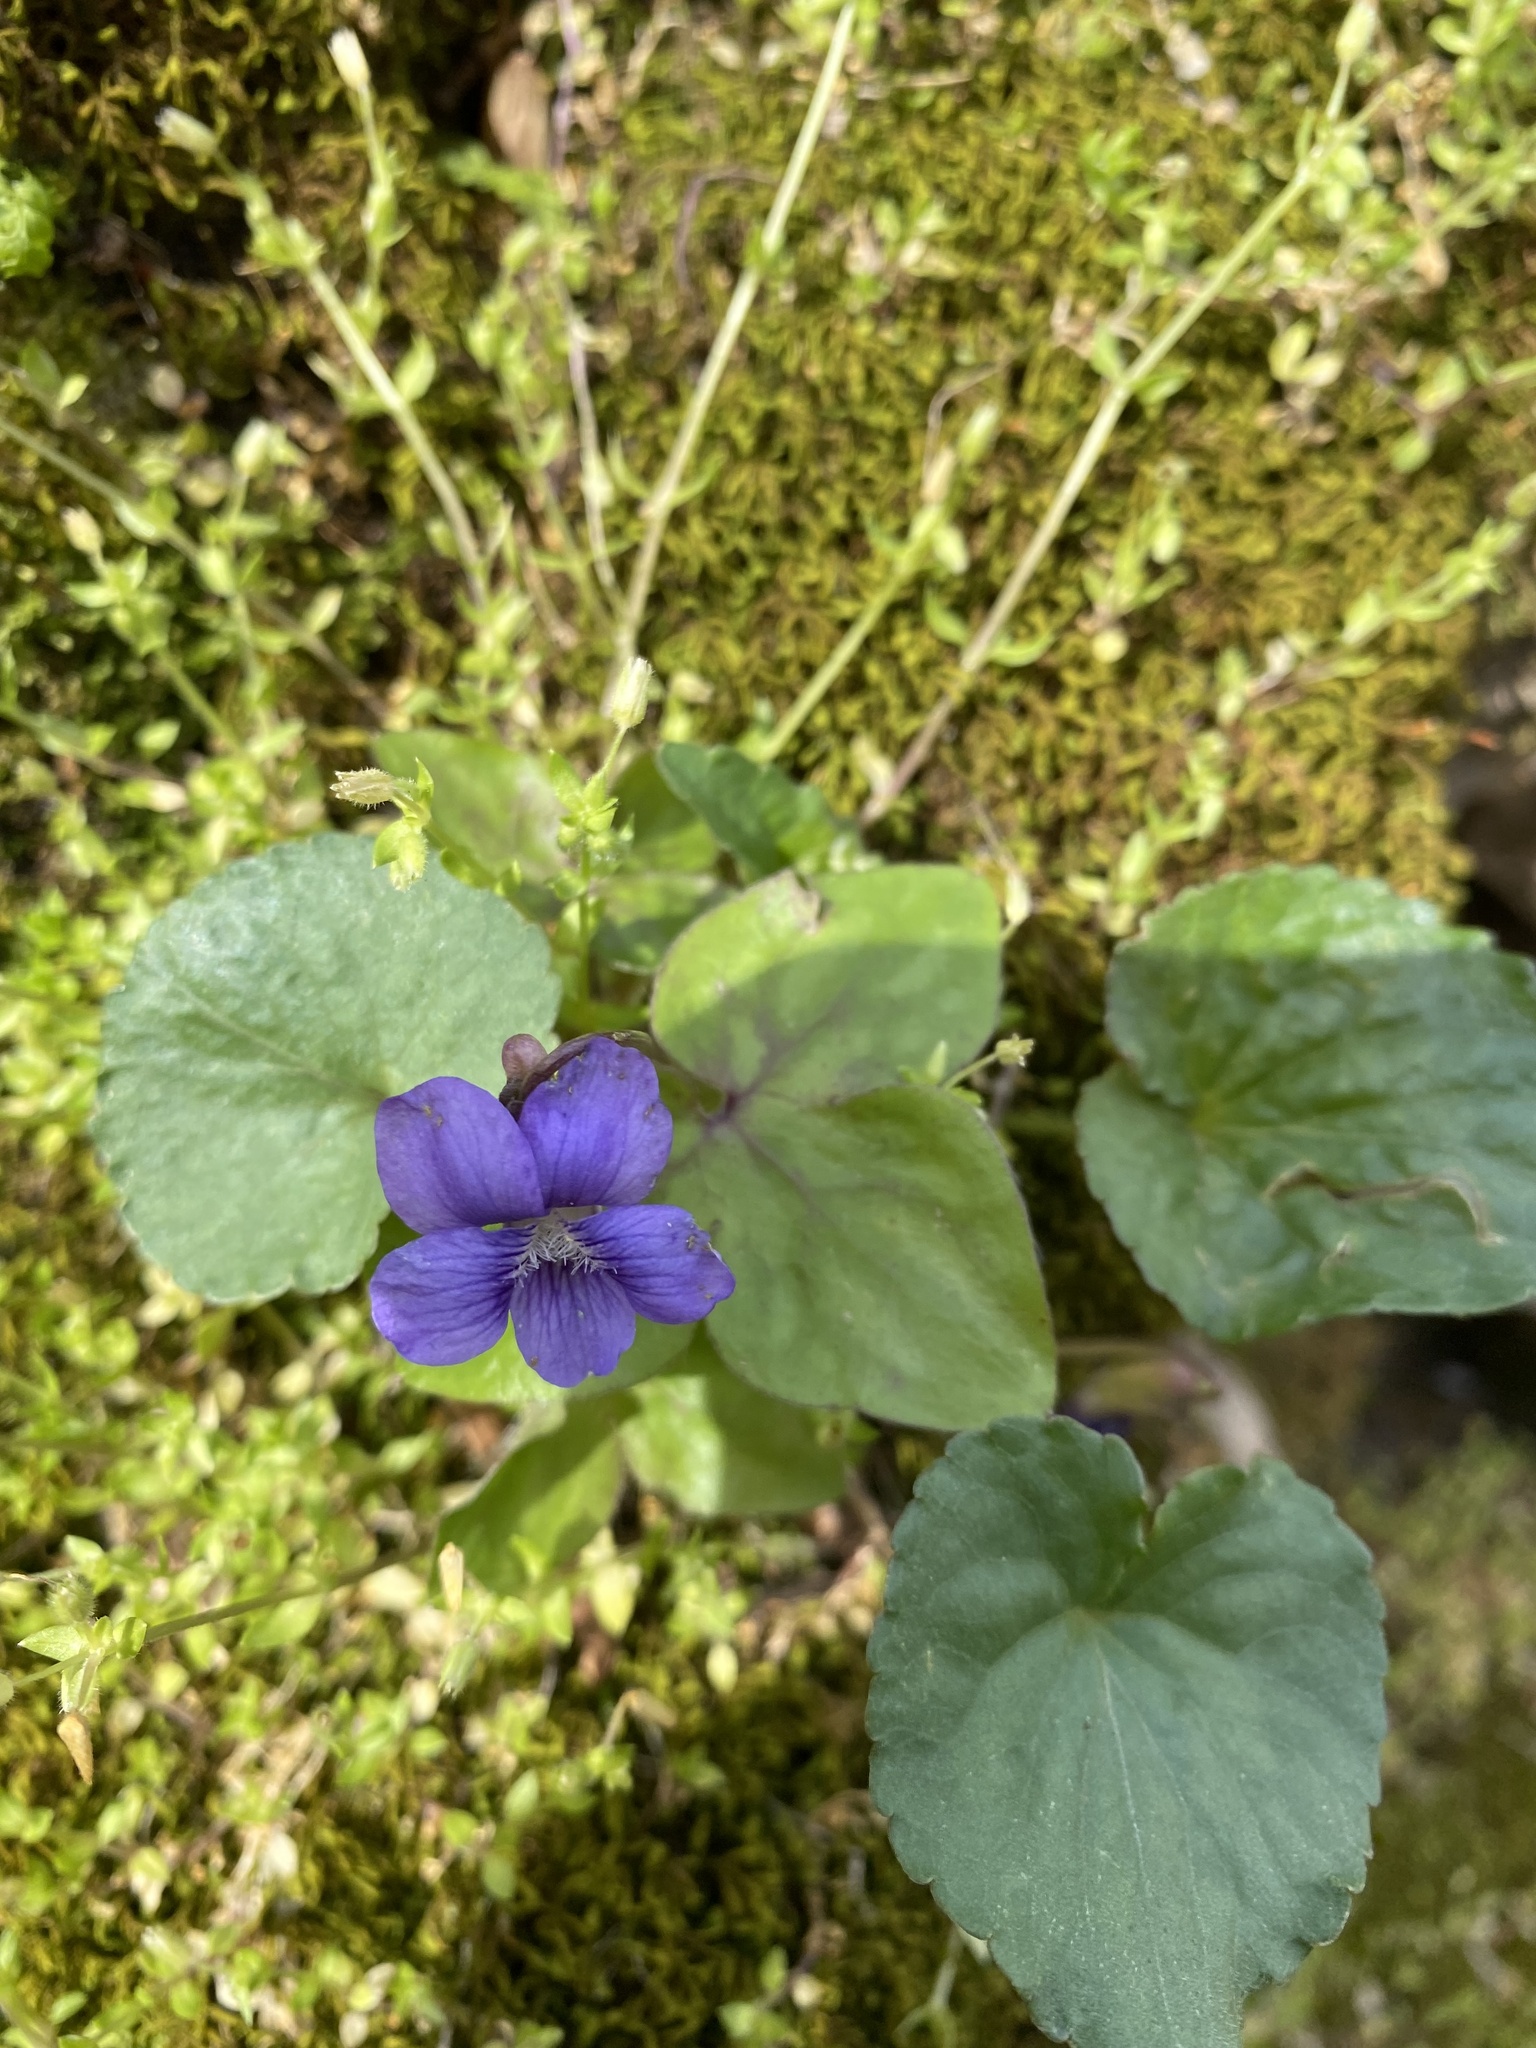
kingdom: Plantae
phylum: Tracheophyta
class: Magnoliopsida
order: Malpighiales
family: Violaceae
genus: Viola
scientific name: Viola sororia
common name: Dooryard violet
